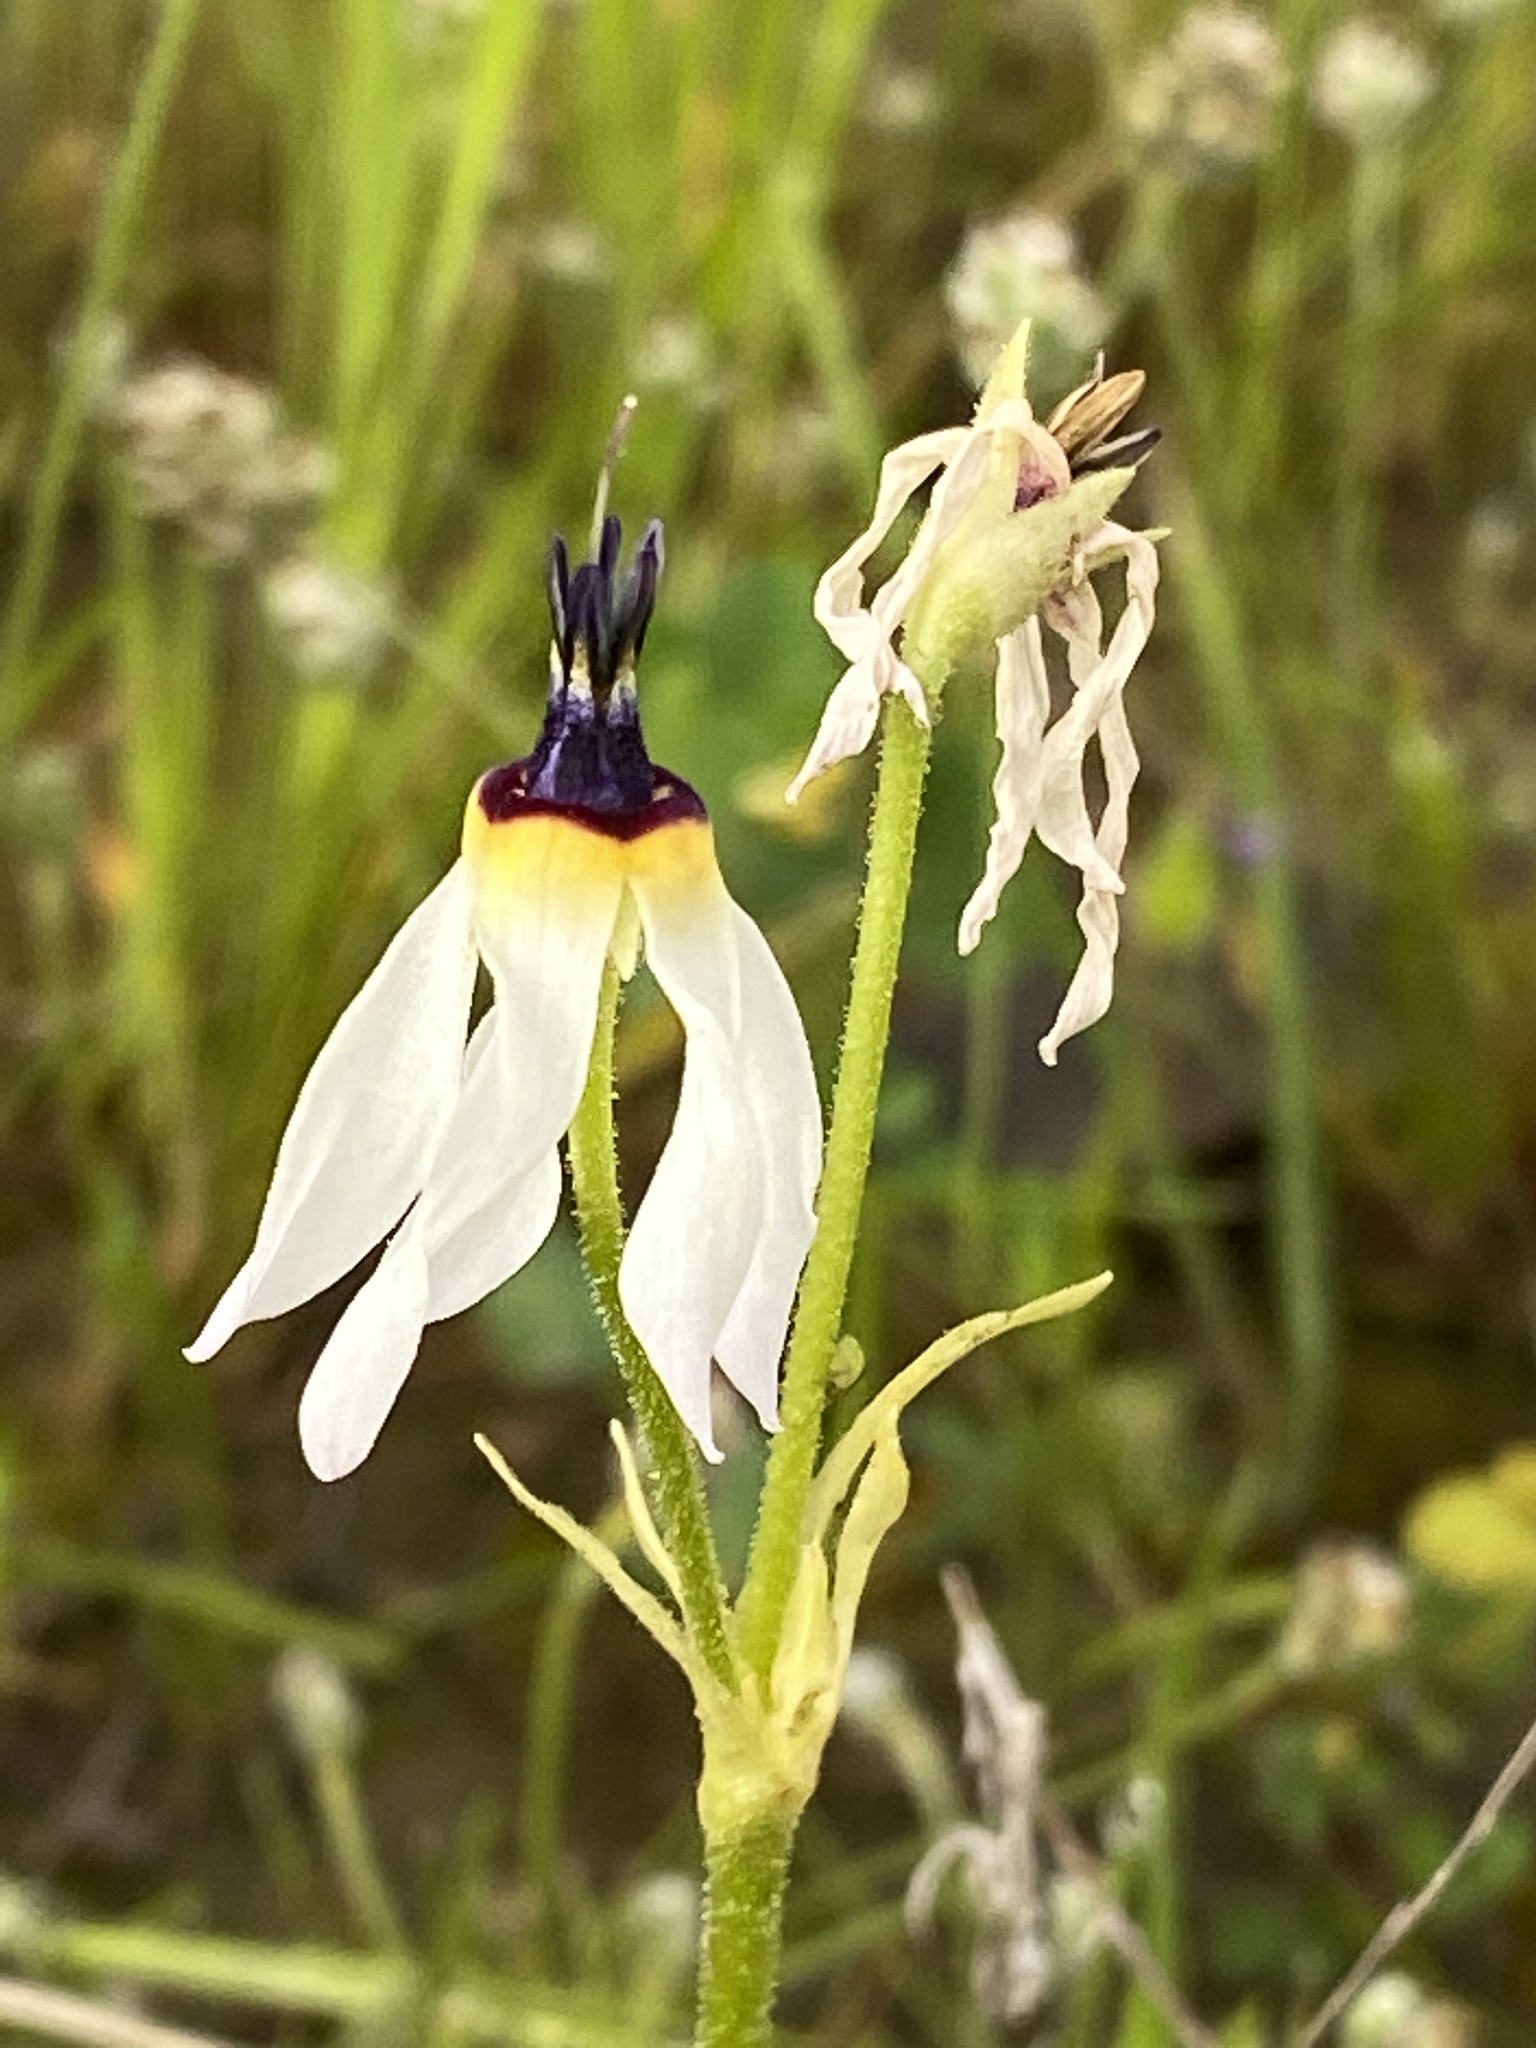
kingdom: Plantae
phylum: Tracheophyta
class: Magnoliopsida
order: Ericales
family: Primulaceae
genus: Dodecatheon
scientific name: Dodecatheon clevelandii
